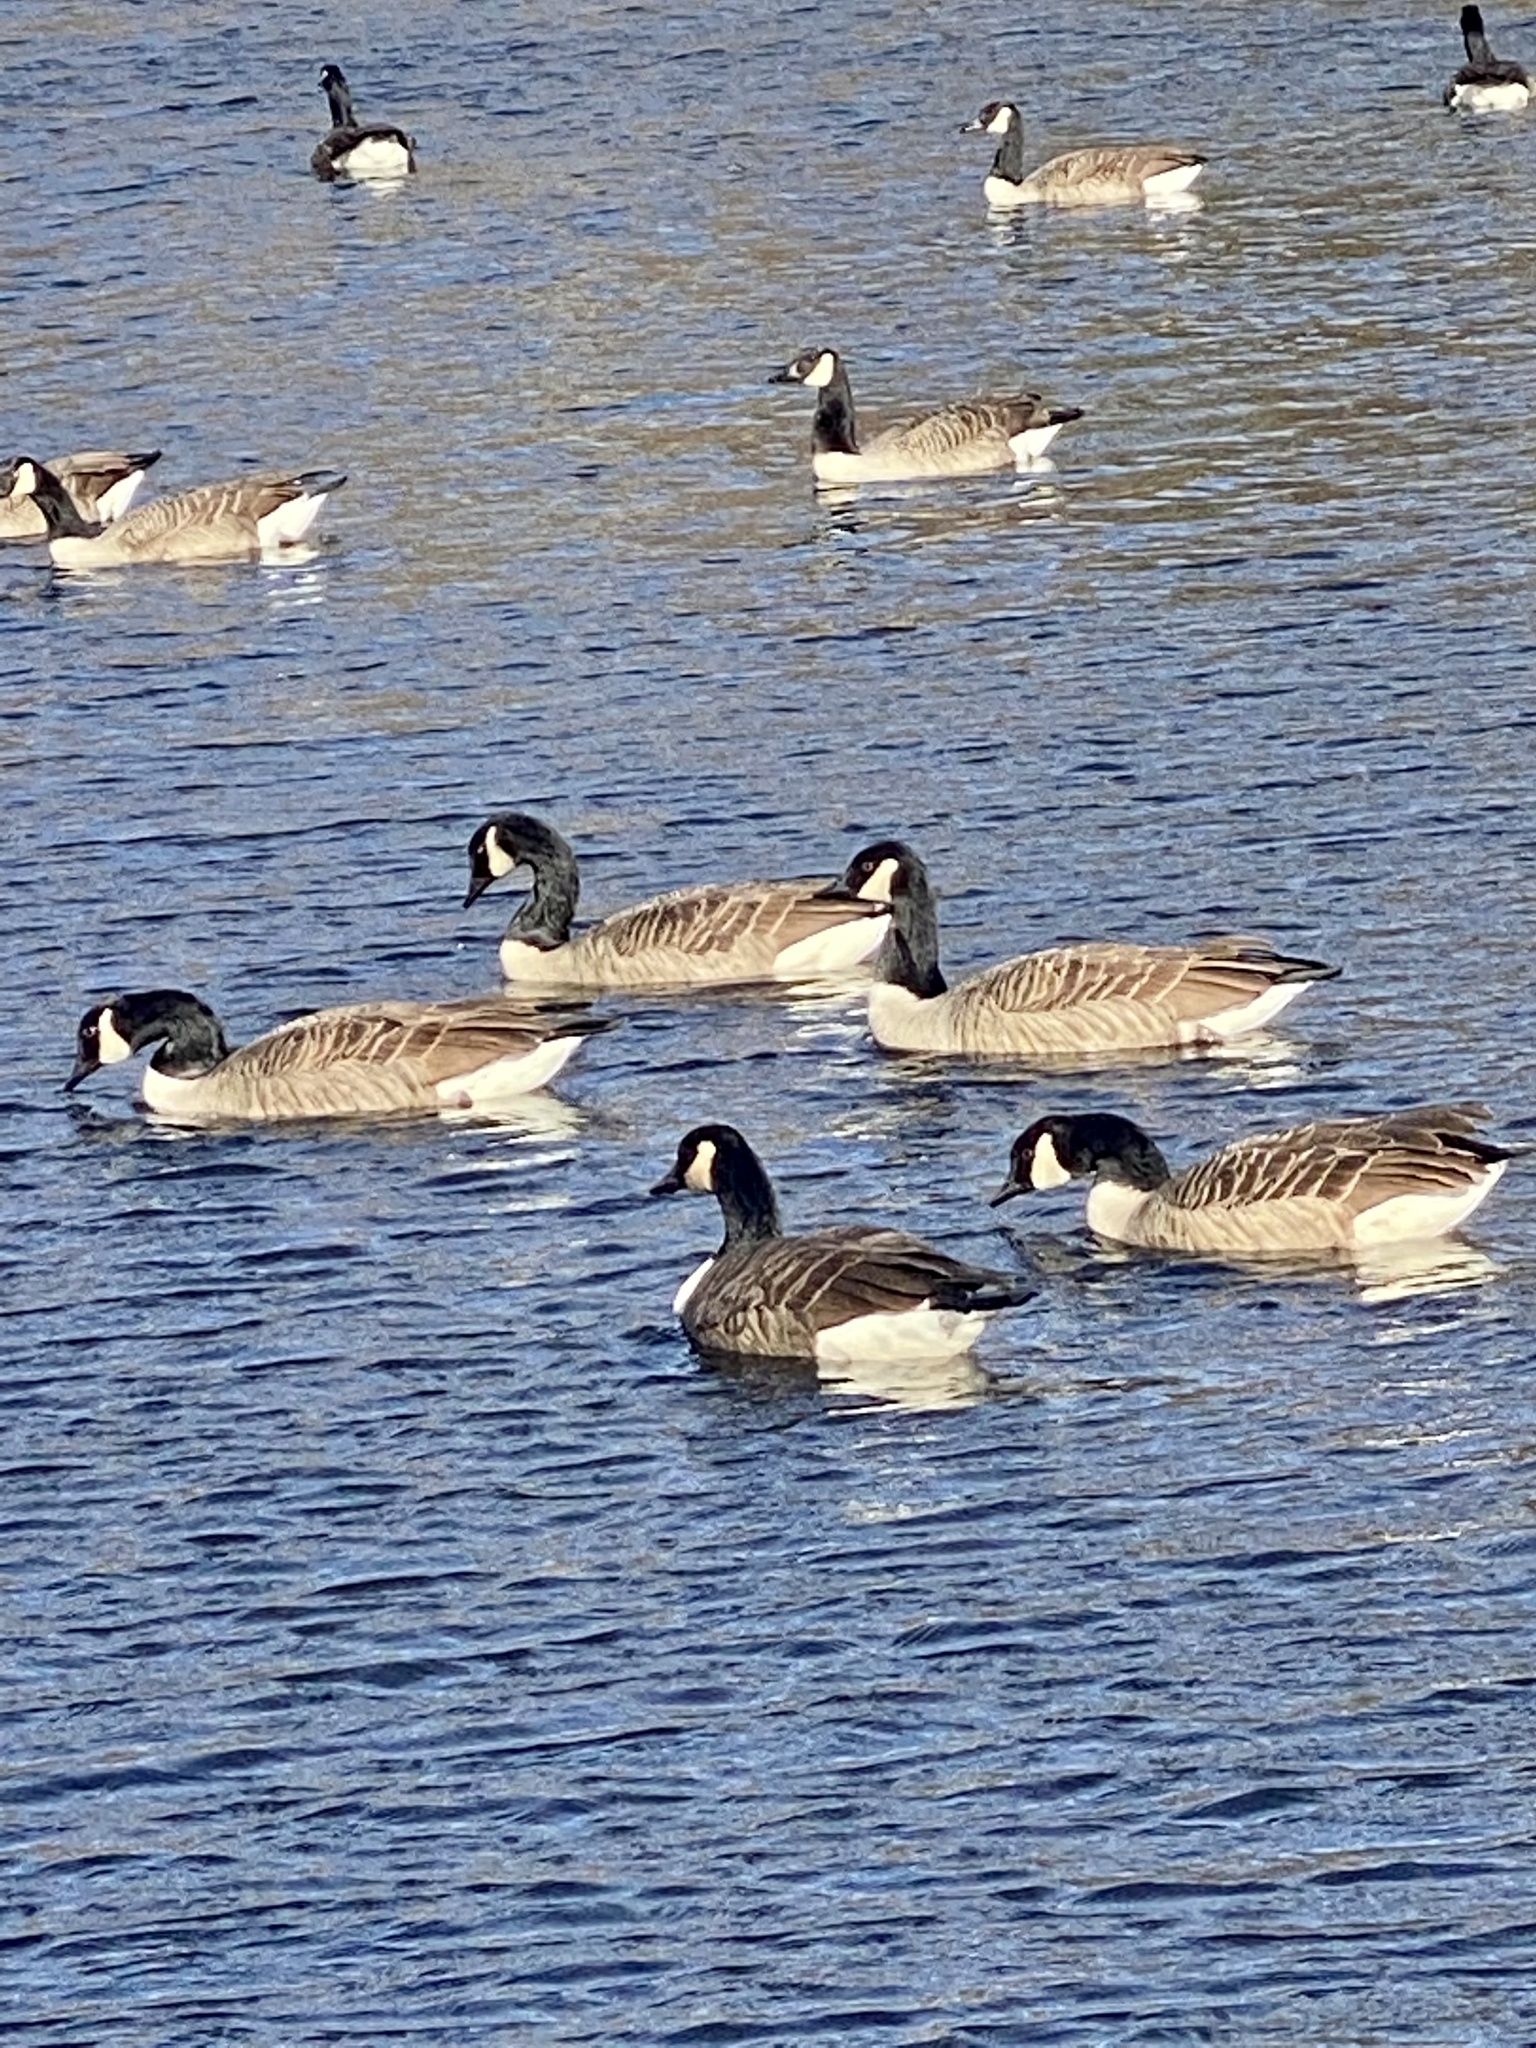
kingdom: Animalia
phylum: Chordata
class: Aves
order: Anseriformes
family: Anatidae
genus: Branta
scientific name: Branta canadensis
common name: Canada goose
